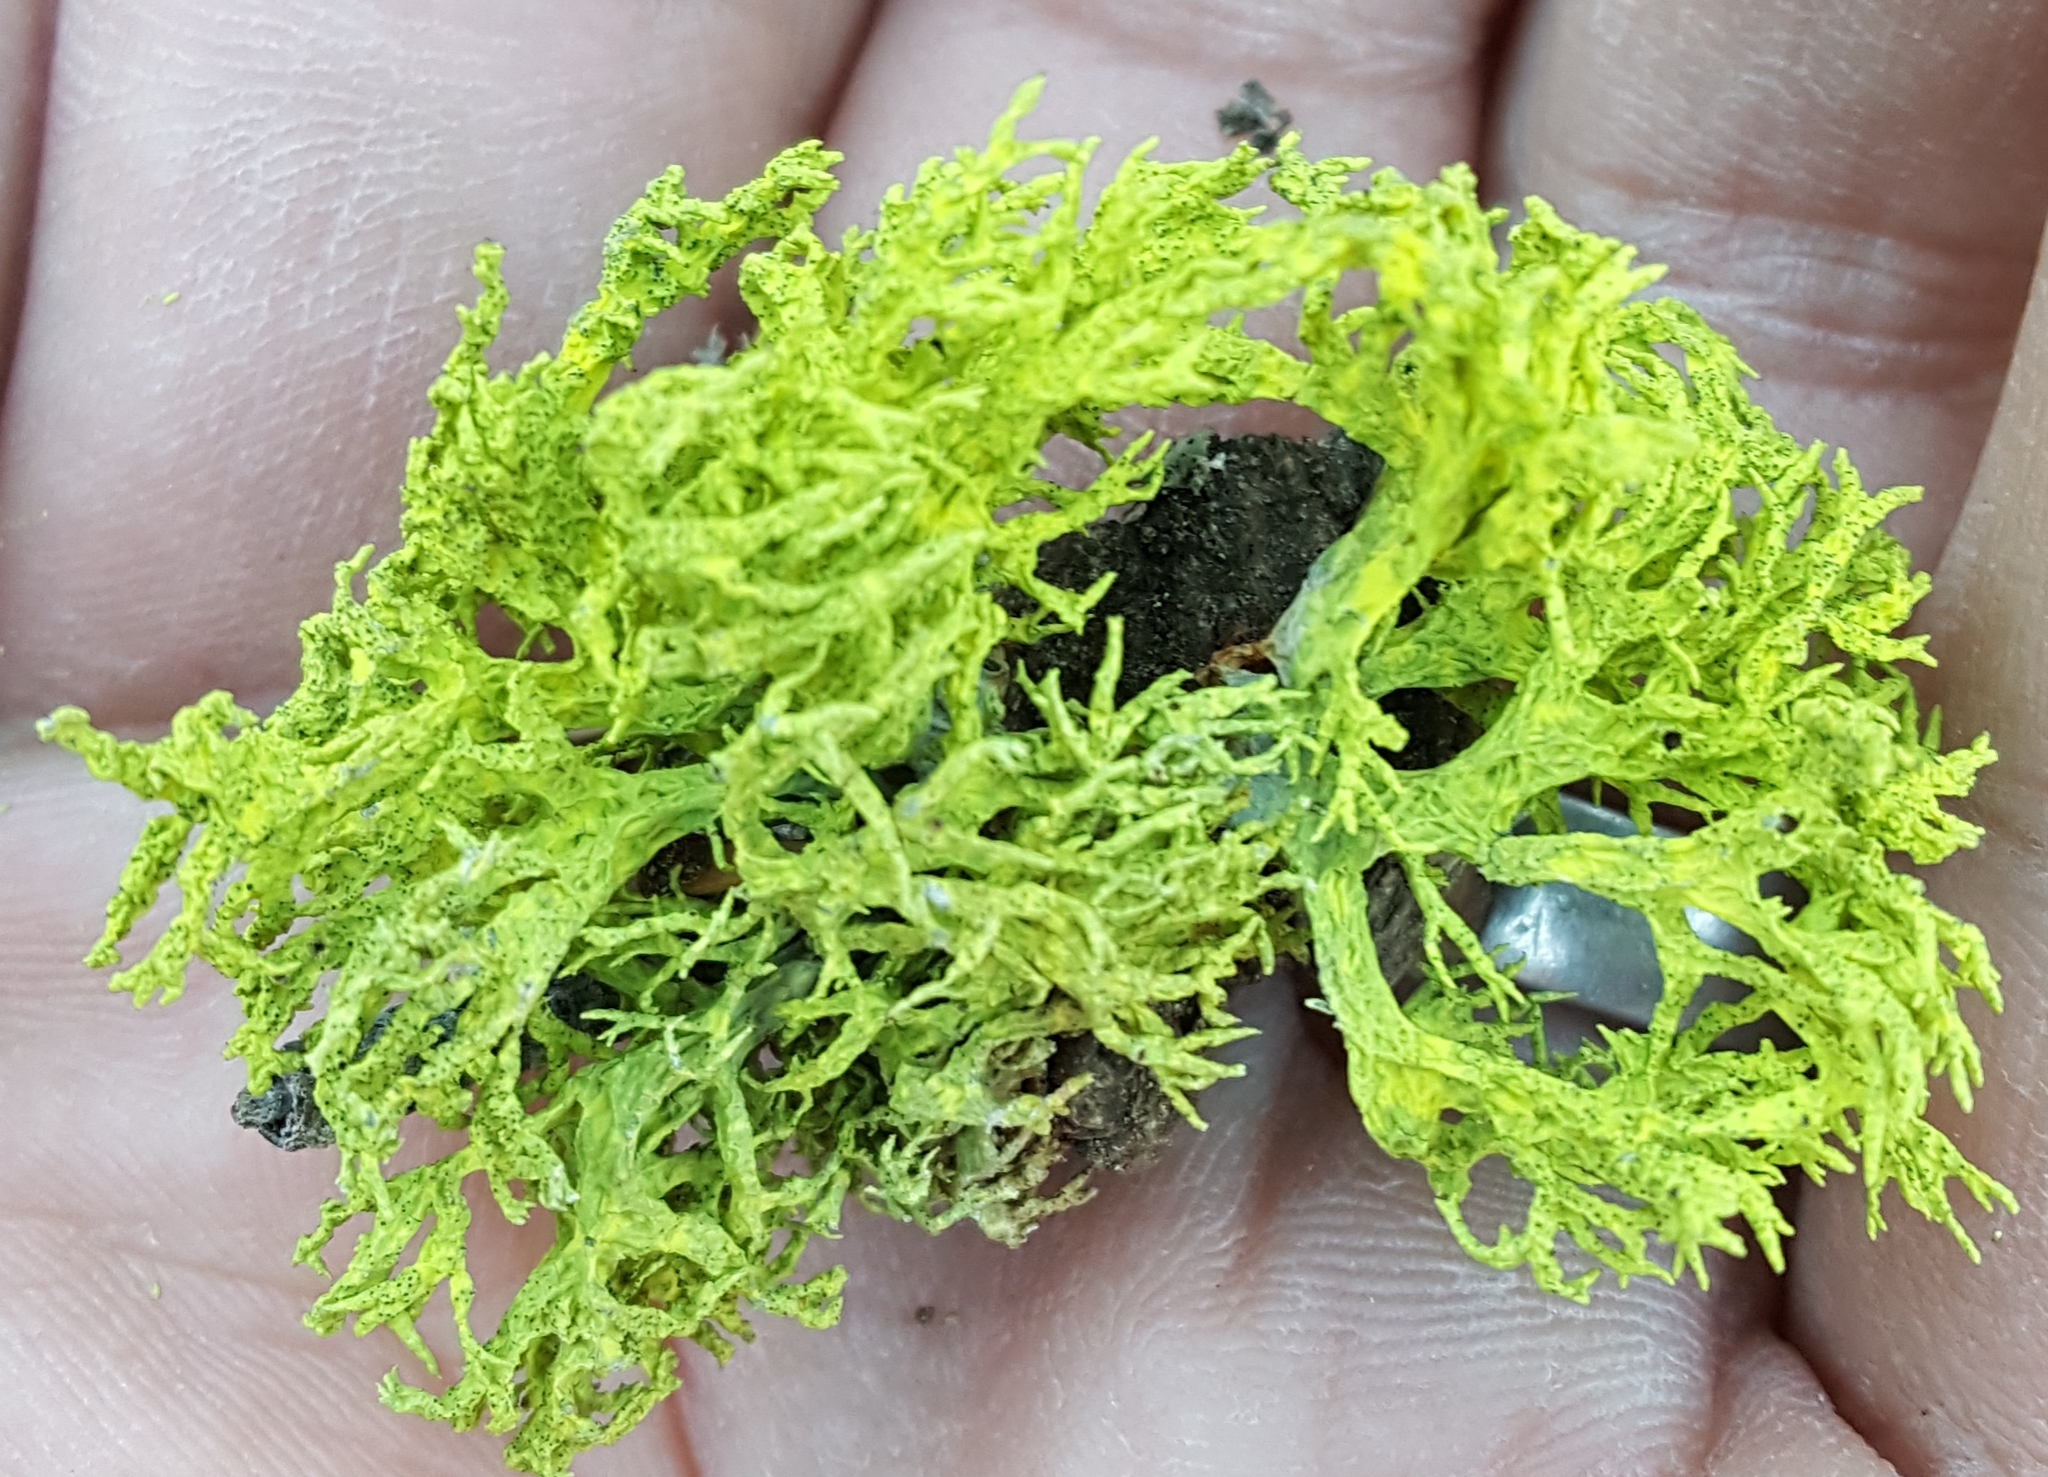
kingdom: Fungi
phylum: Ascomycota
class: Lecanoromycetes
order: Lecanorales
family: Parmeliaceae
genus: Letharia
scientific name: Letharia
